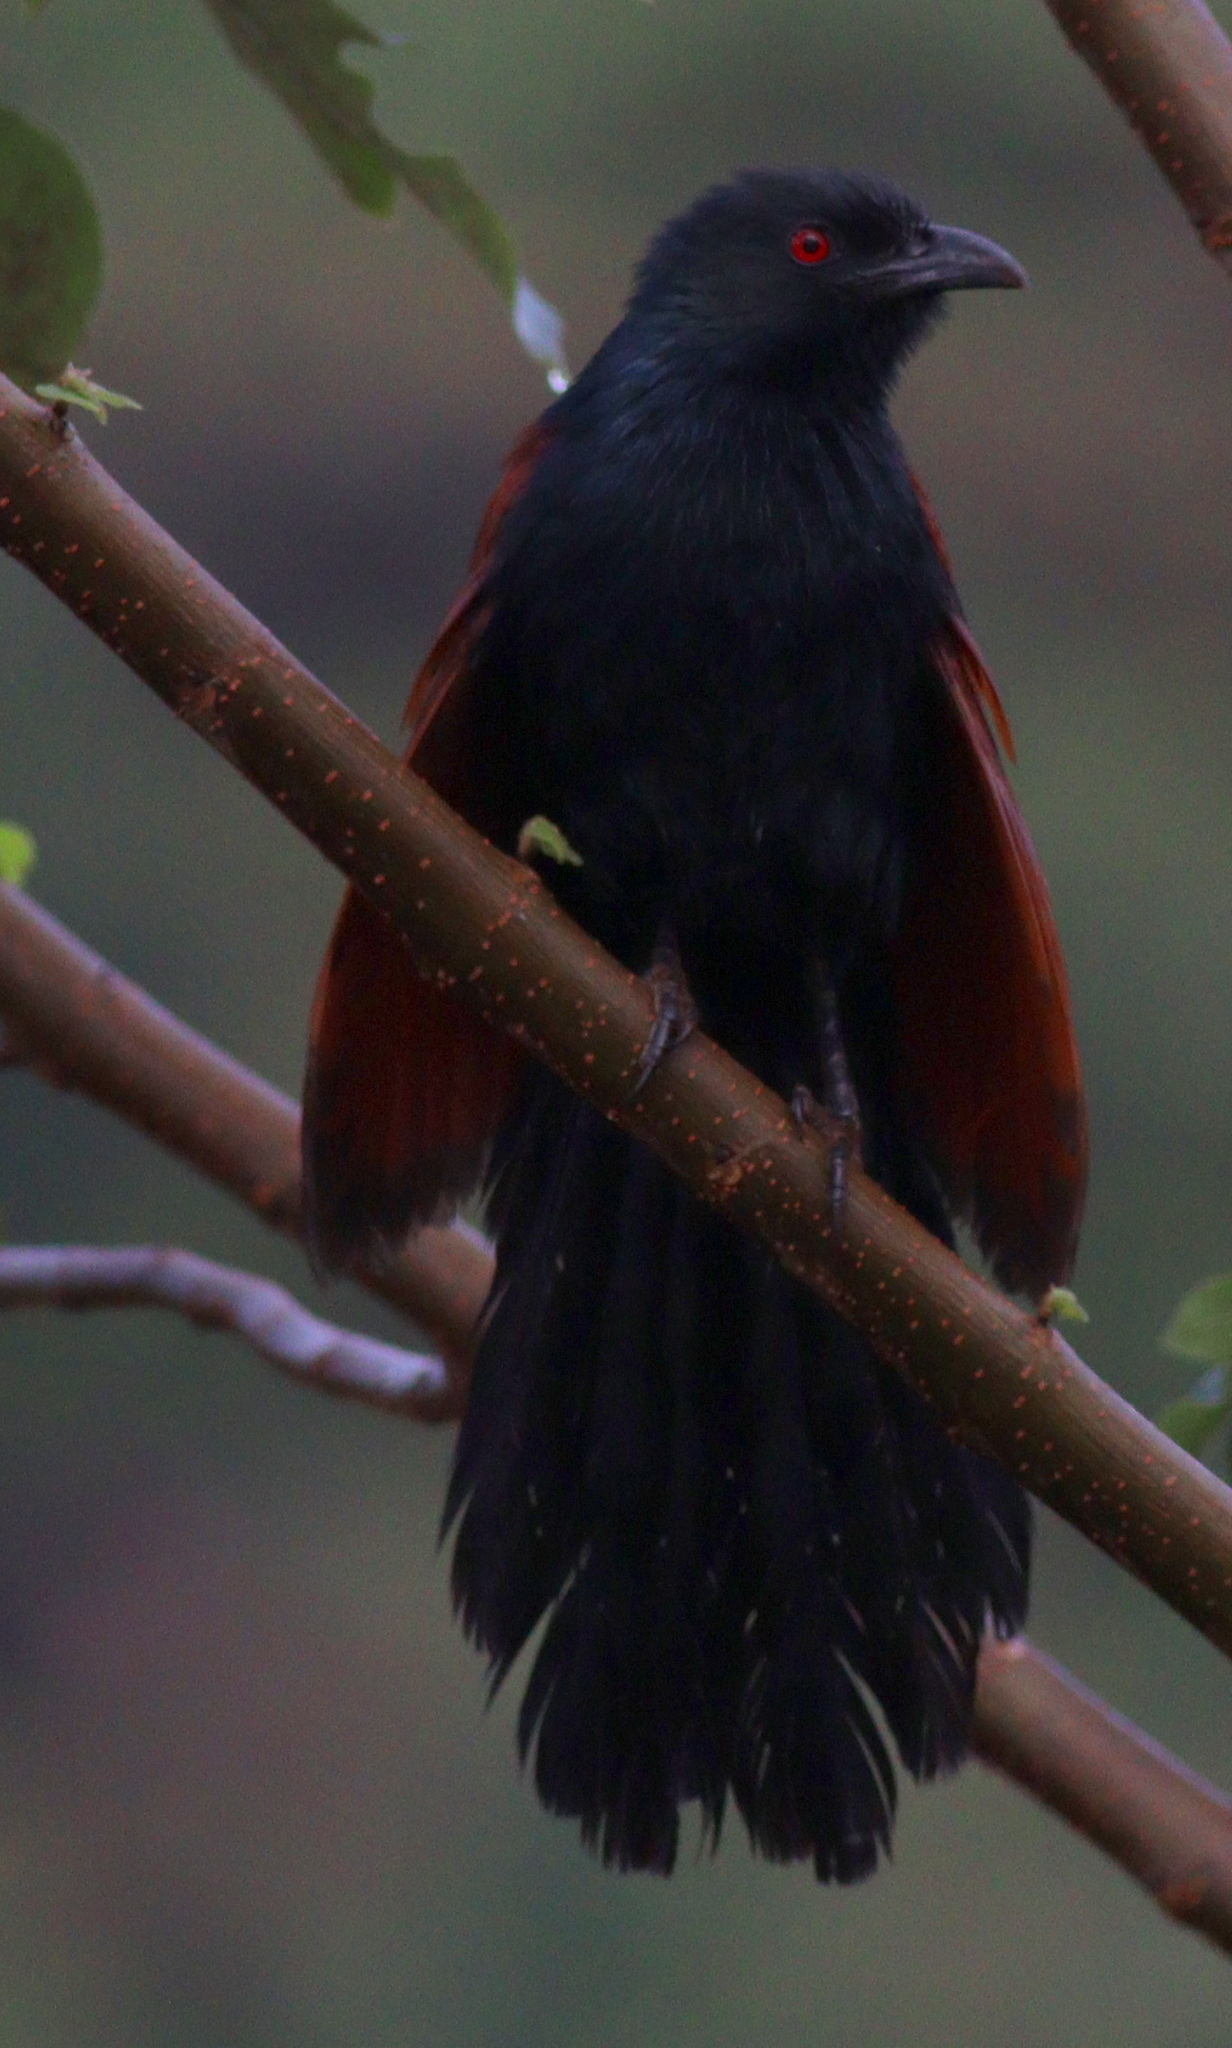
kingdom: Animalia
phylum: Chordata
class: Aves
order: Cuculiformes
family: Cuculidae
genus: Centropus
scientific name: Centropus sinensis
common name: Greater coucal
